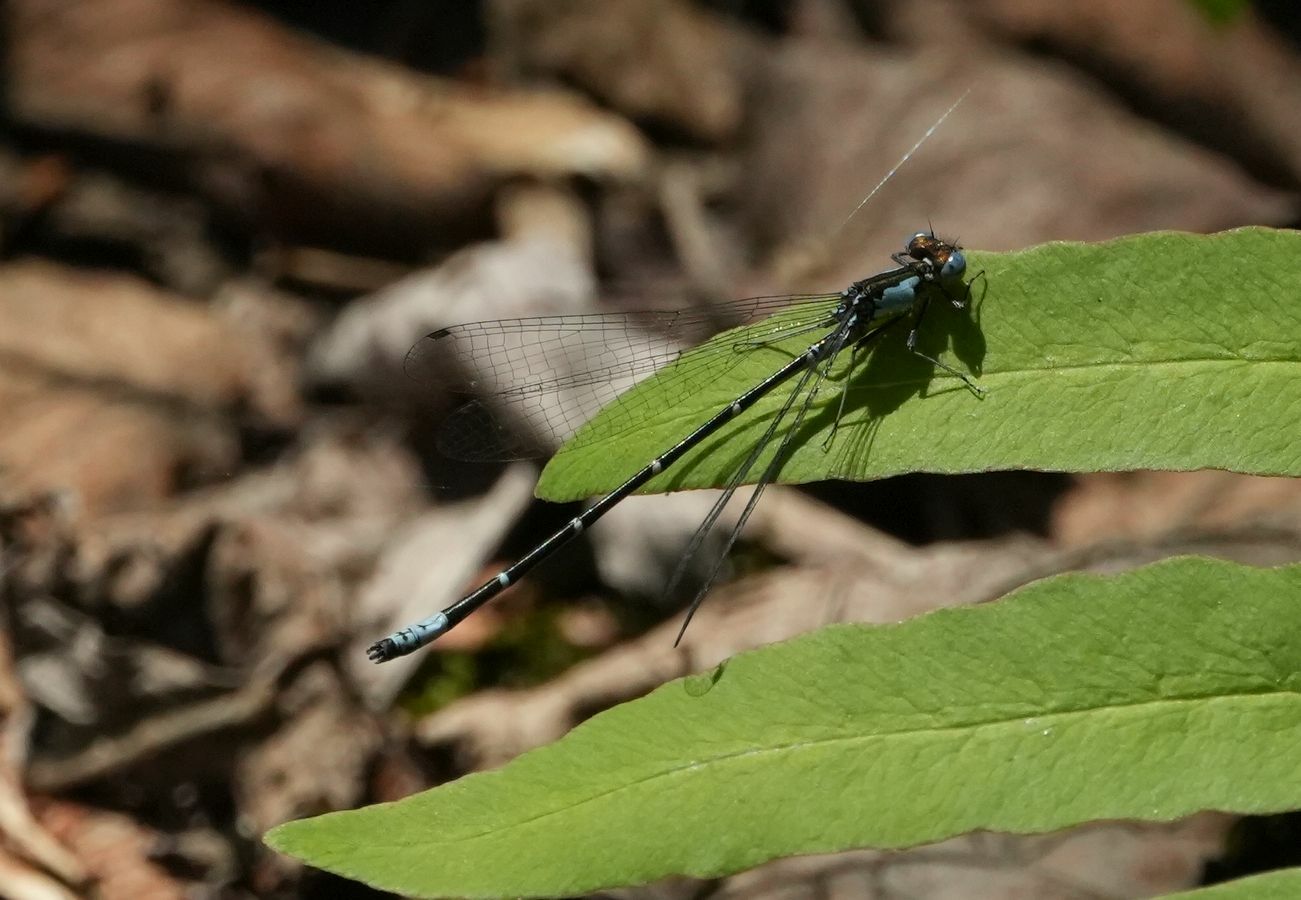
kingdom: Animalia
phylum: Arthropoda
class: Insecta
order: Odonata
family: Coenagrionidae
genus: Chromagrion
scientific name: Chromagrion conditum
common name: Aurora damsel
